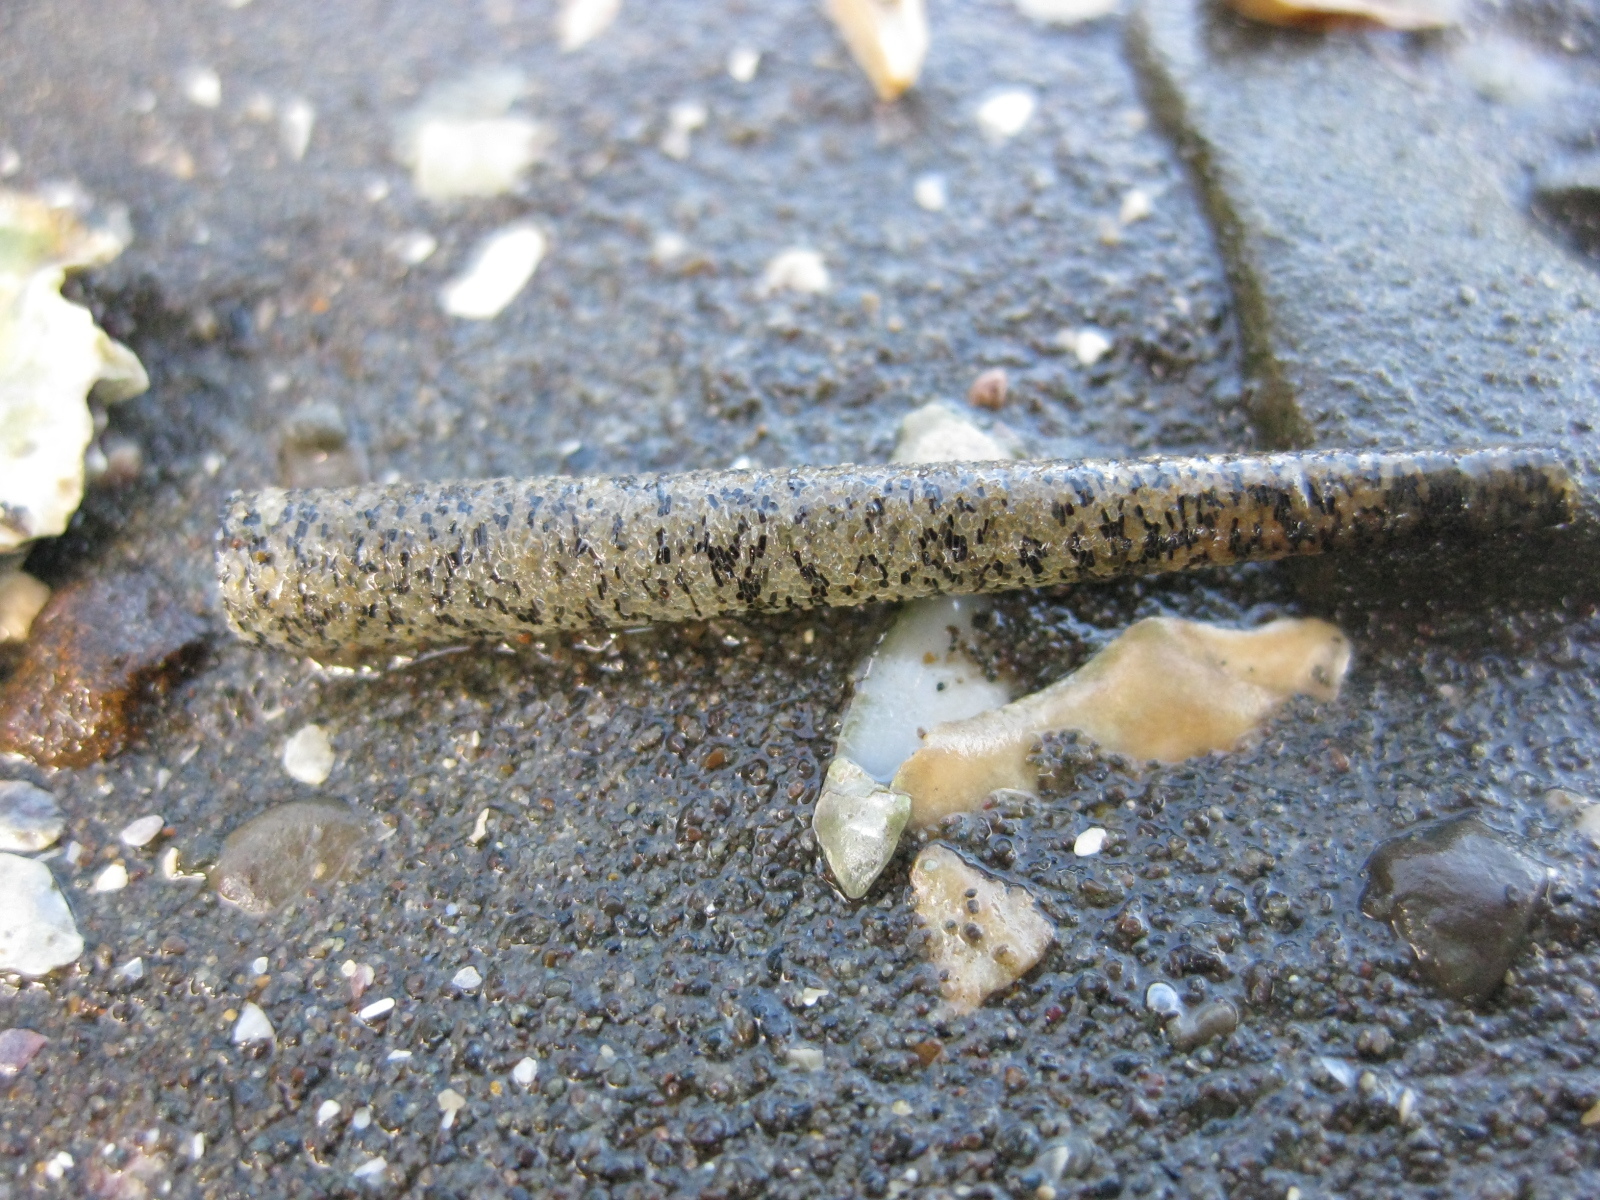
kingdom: Animalia
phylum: Annelida
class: Polychaeta
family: Pectinariidae
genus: Lagis
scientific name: Lagis australis
